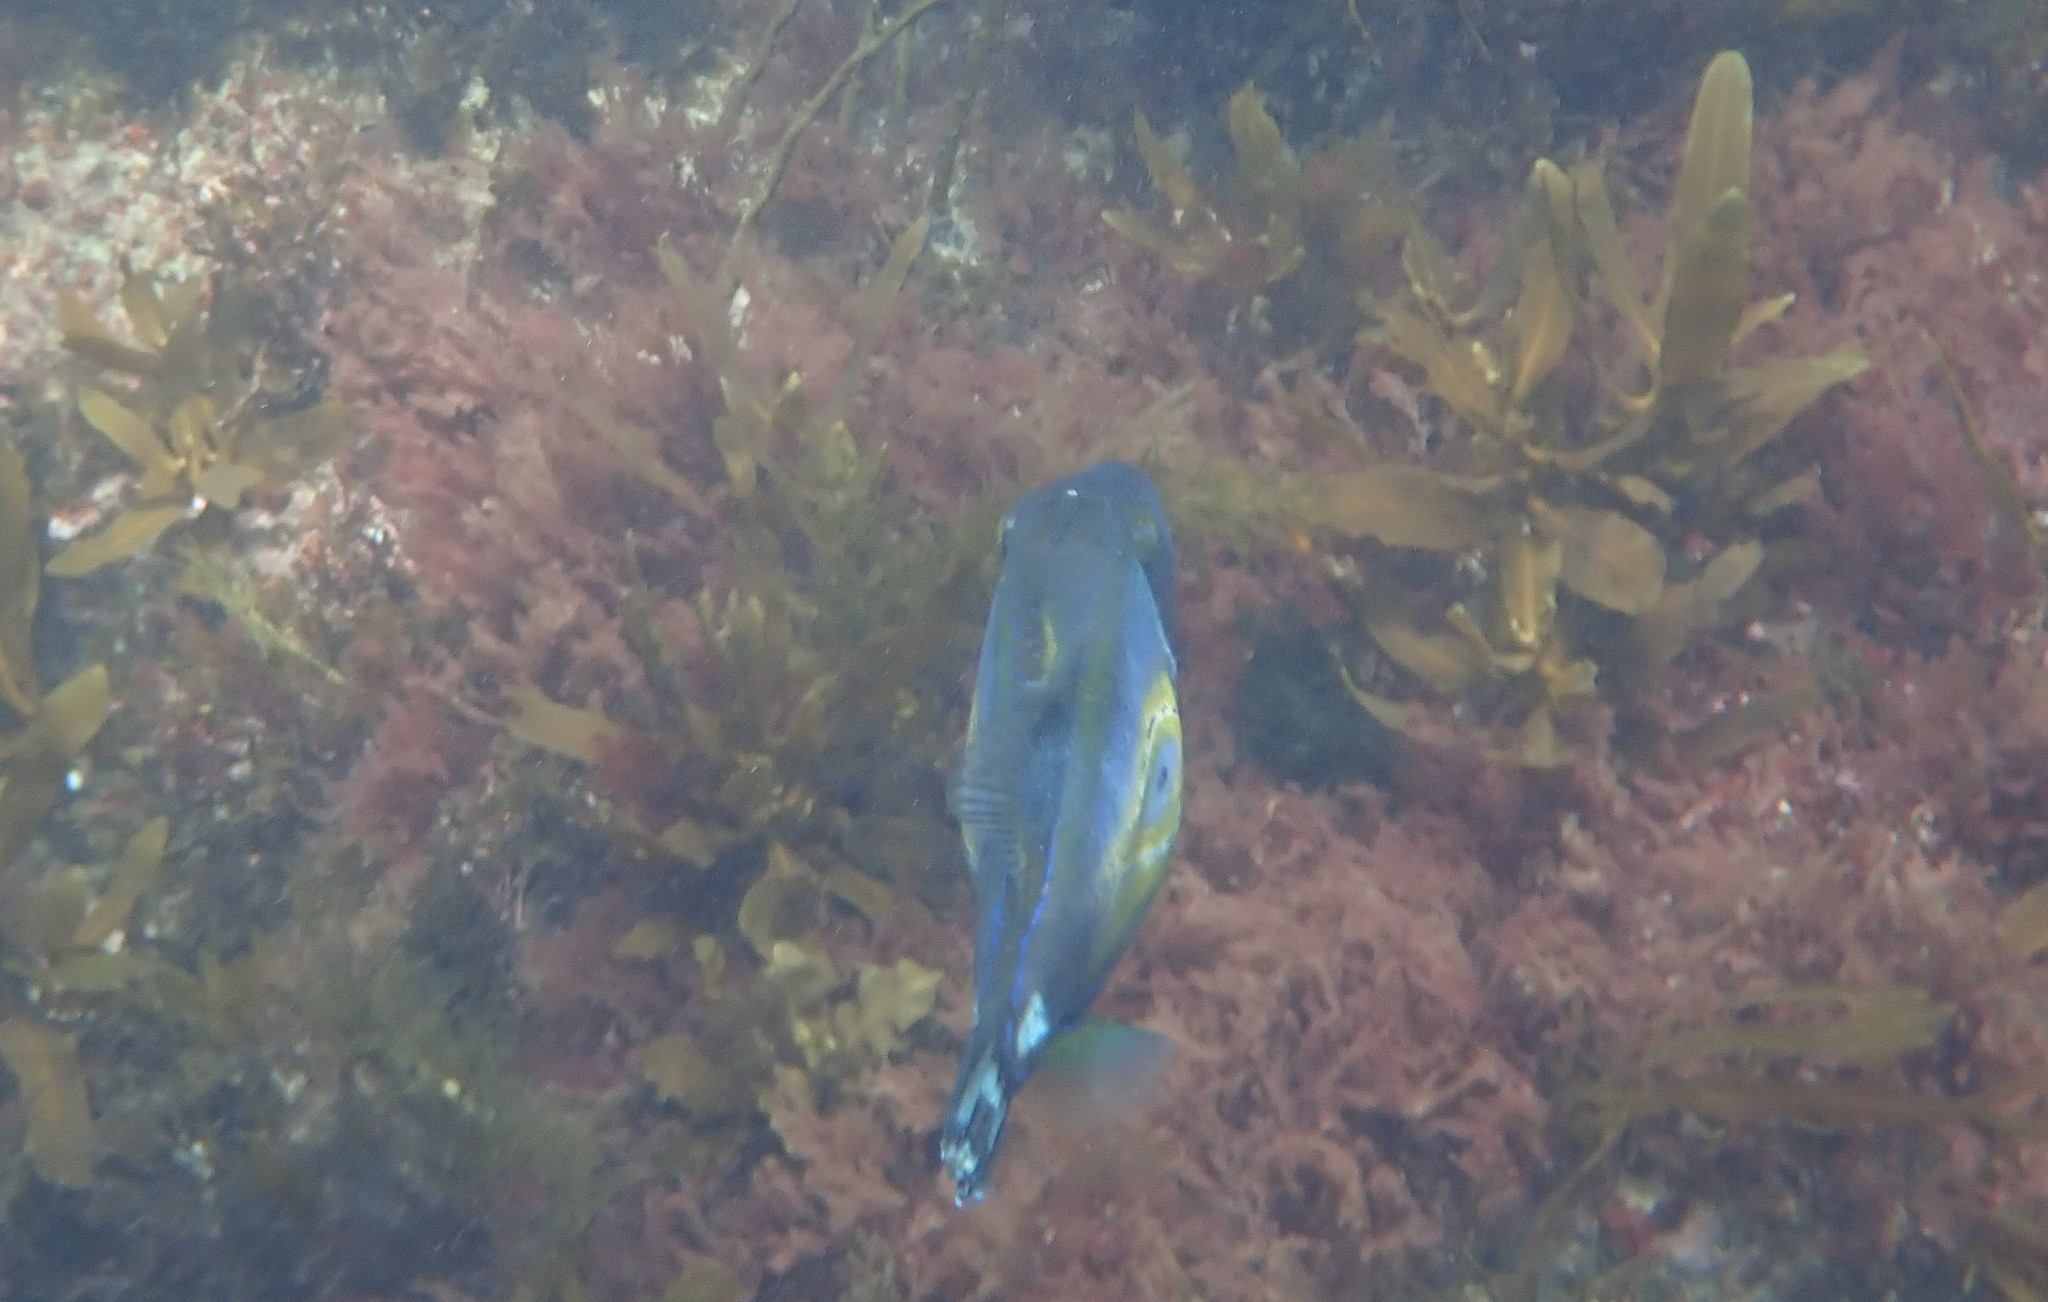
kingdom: Animalia
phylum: Chordata
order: Tetraodontiformes
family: Monacanthidae
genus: Meuschenia
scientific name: Meuschenia hippocrepis
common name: Horse-shoe leatherjacket
